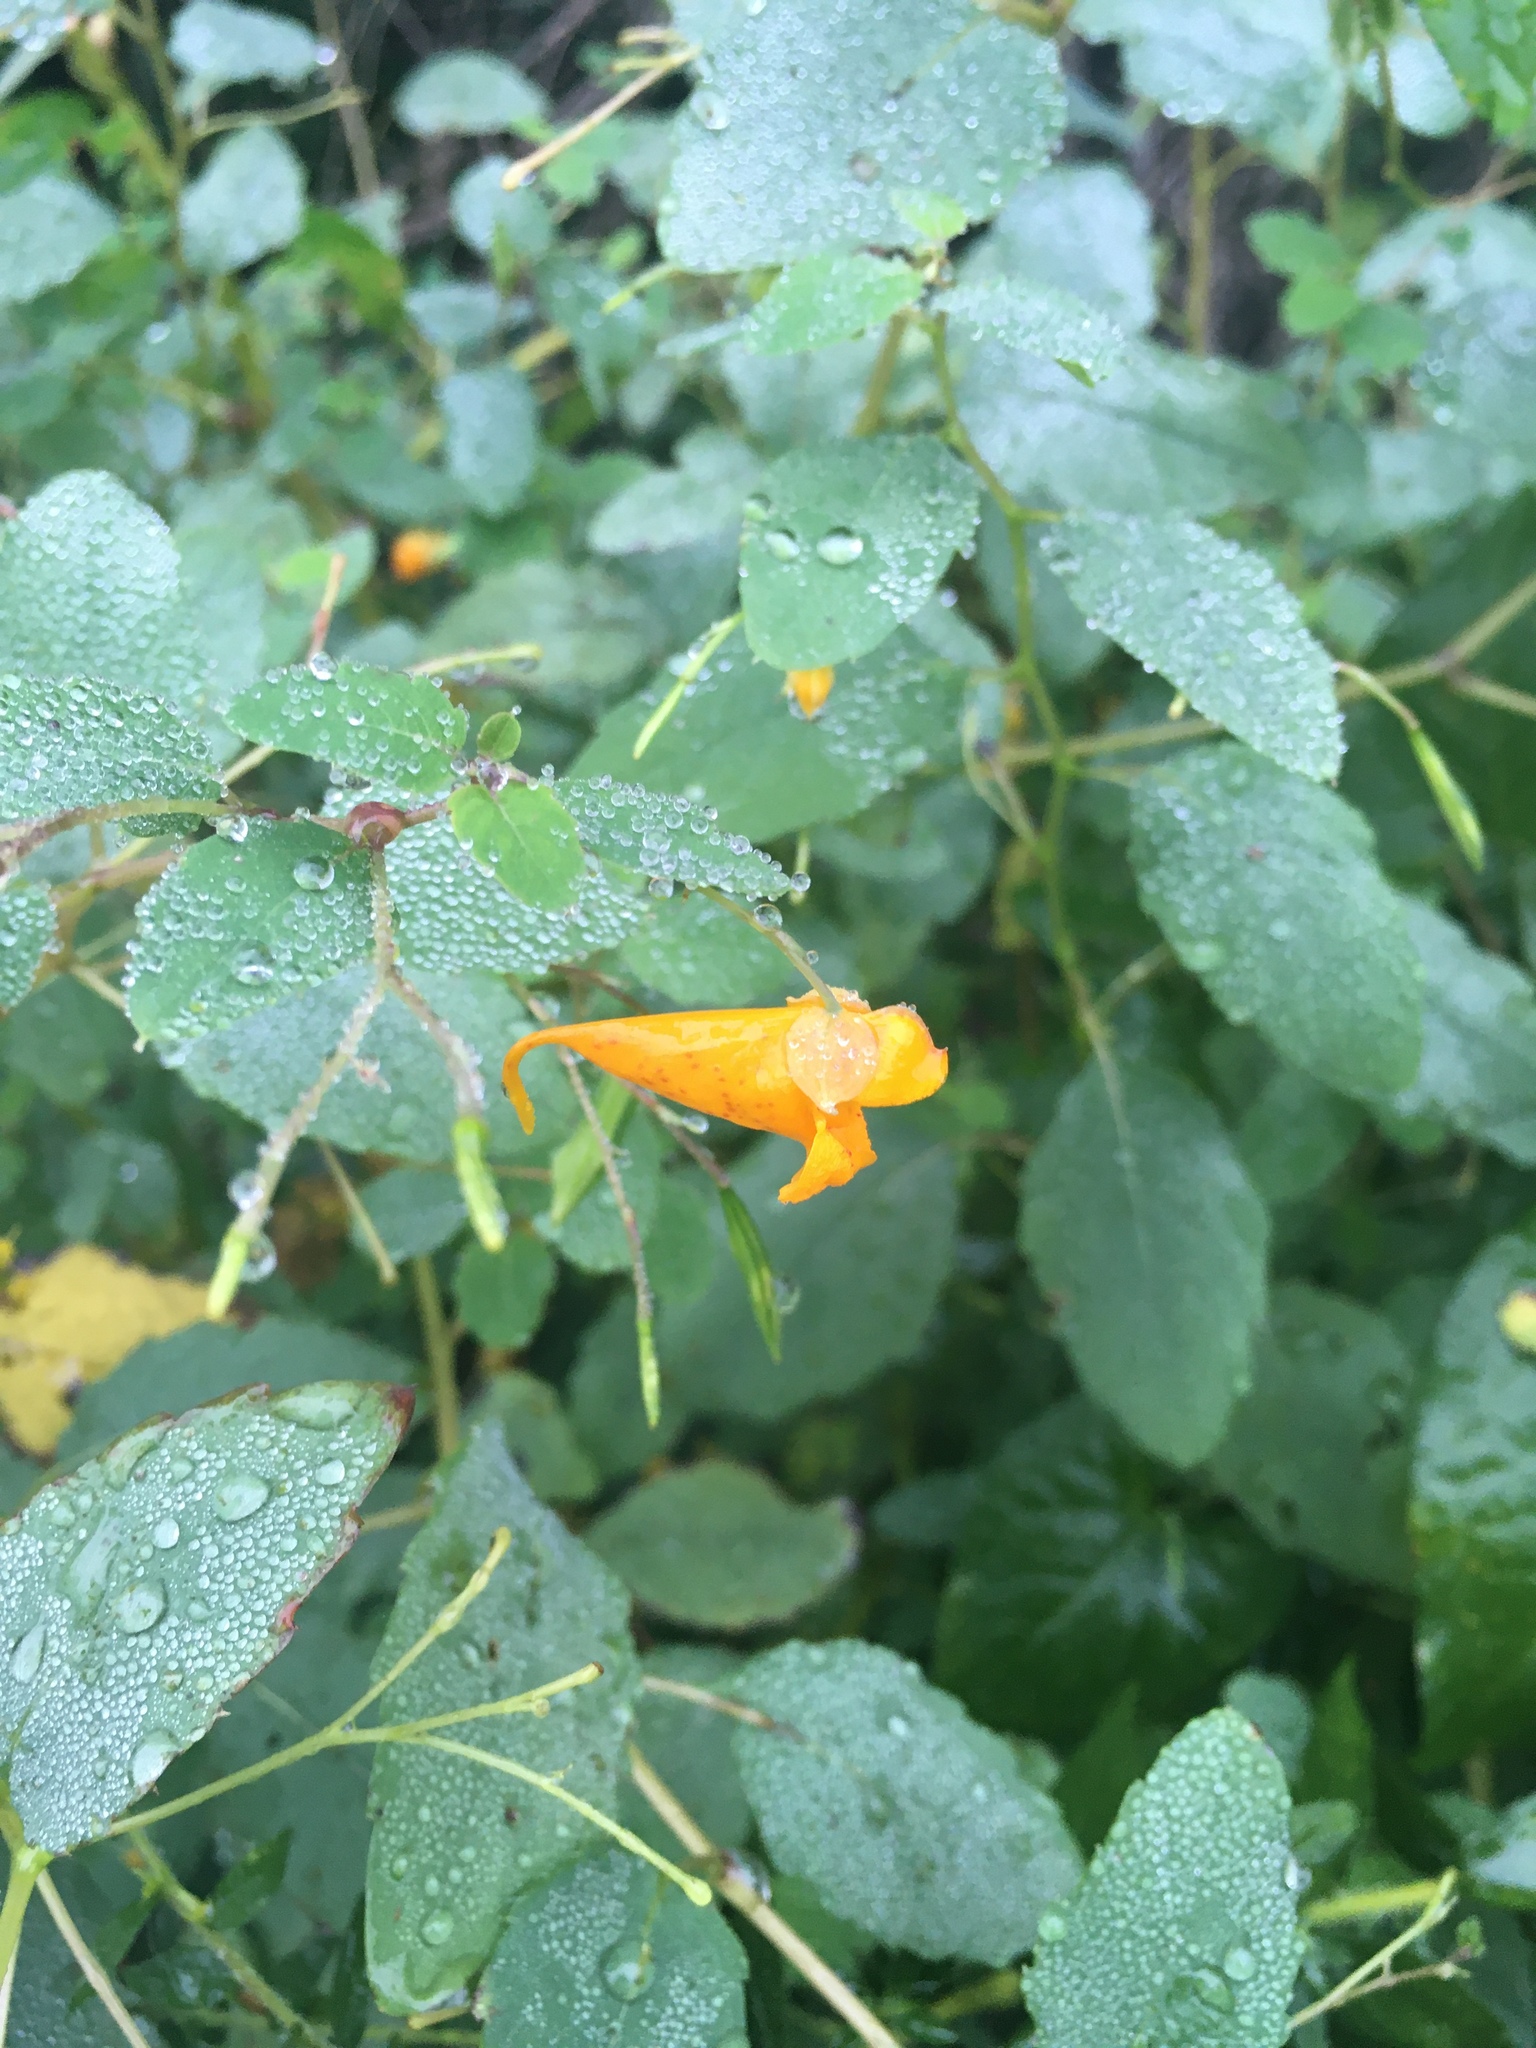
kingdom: Plantae
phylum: Tracheophyta
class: Magnoliopsida
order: Ericales
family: Balsaminaceae
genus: Impatiens
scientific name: Impatiens capensis
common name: Orange balsam
